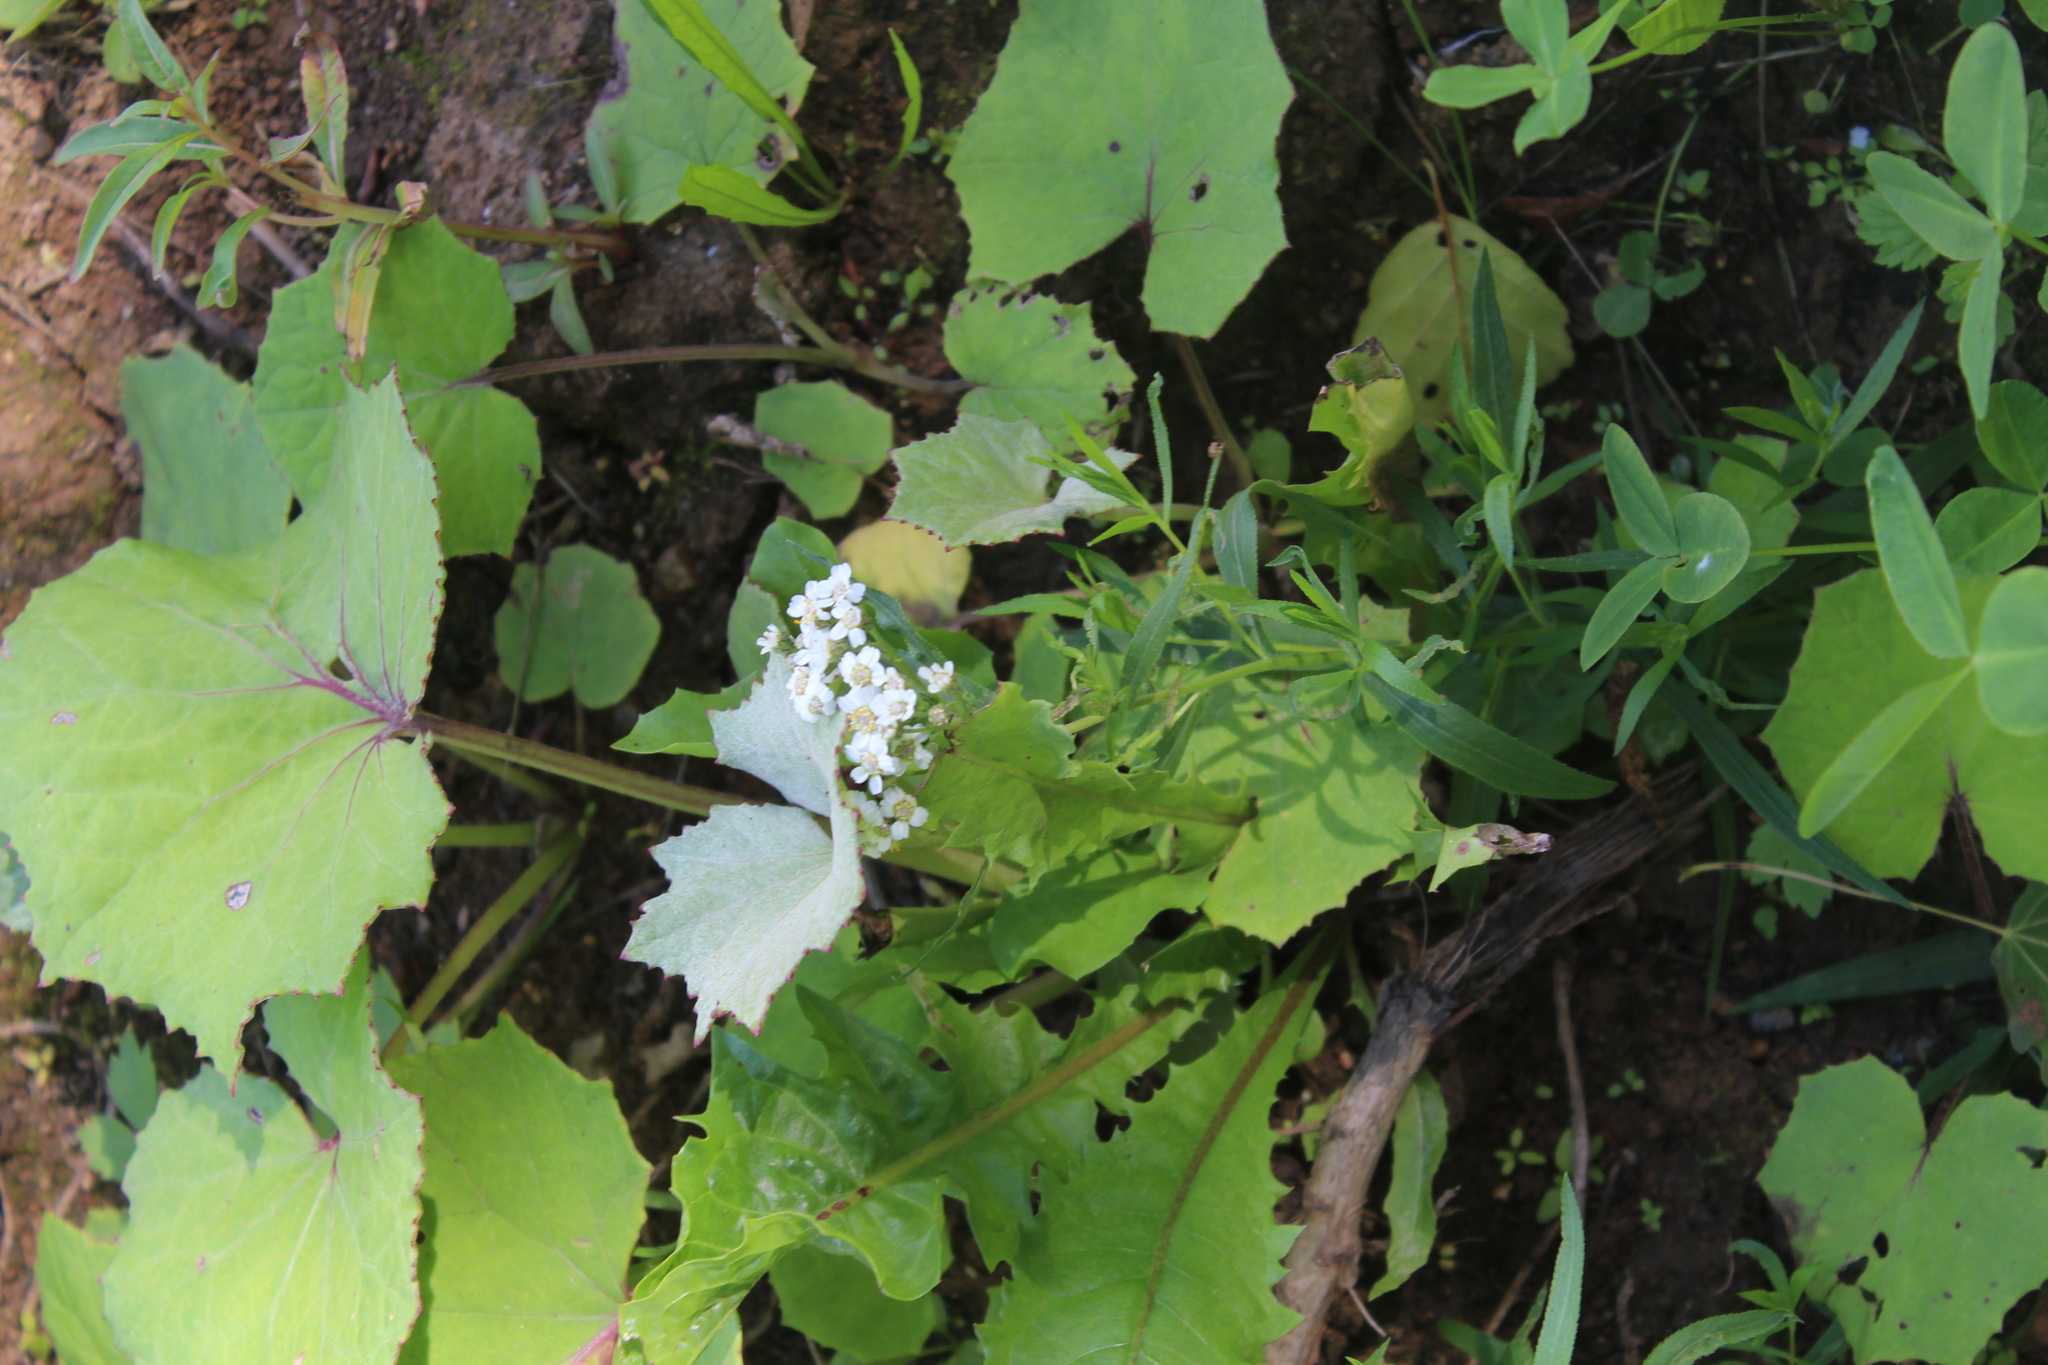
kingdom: Plantae
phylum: Tracheophyta
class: Magnoliopsida
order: Asterales
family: Asteraceae
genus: Achillea
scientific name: Achillea salicifolia
